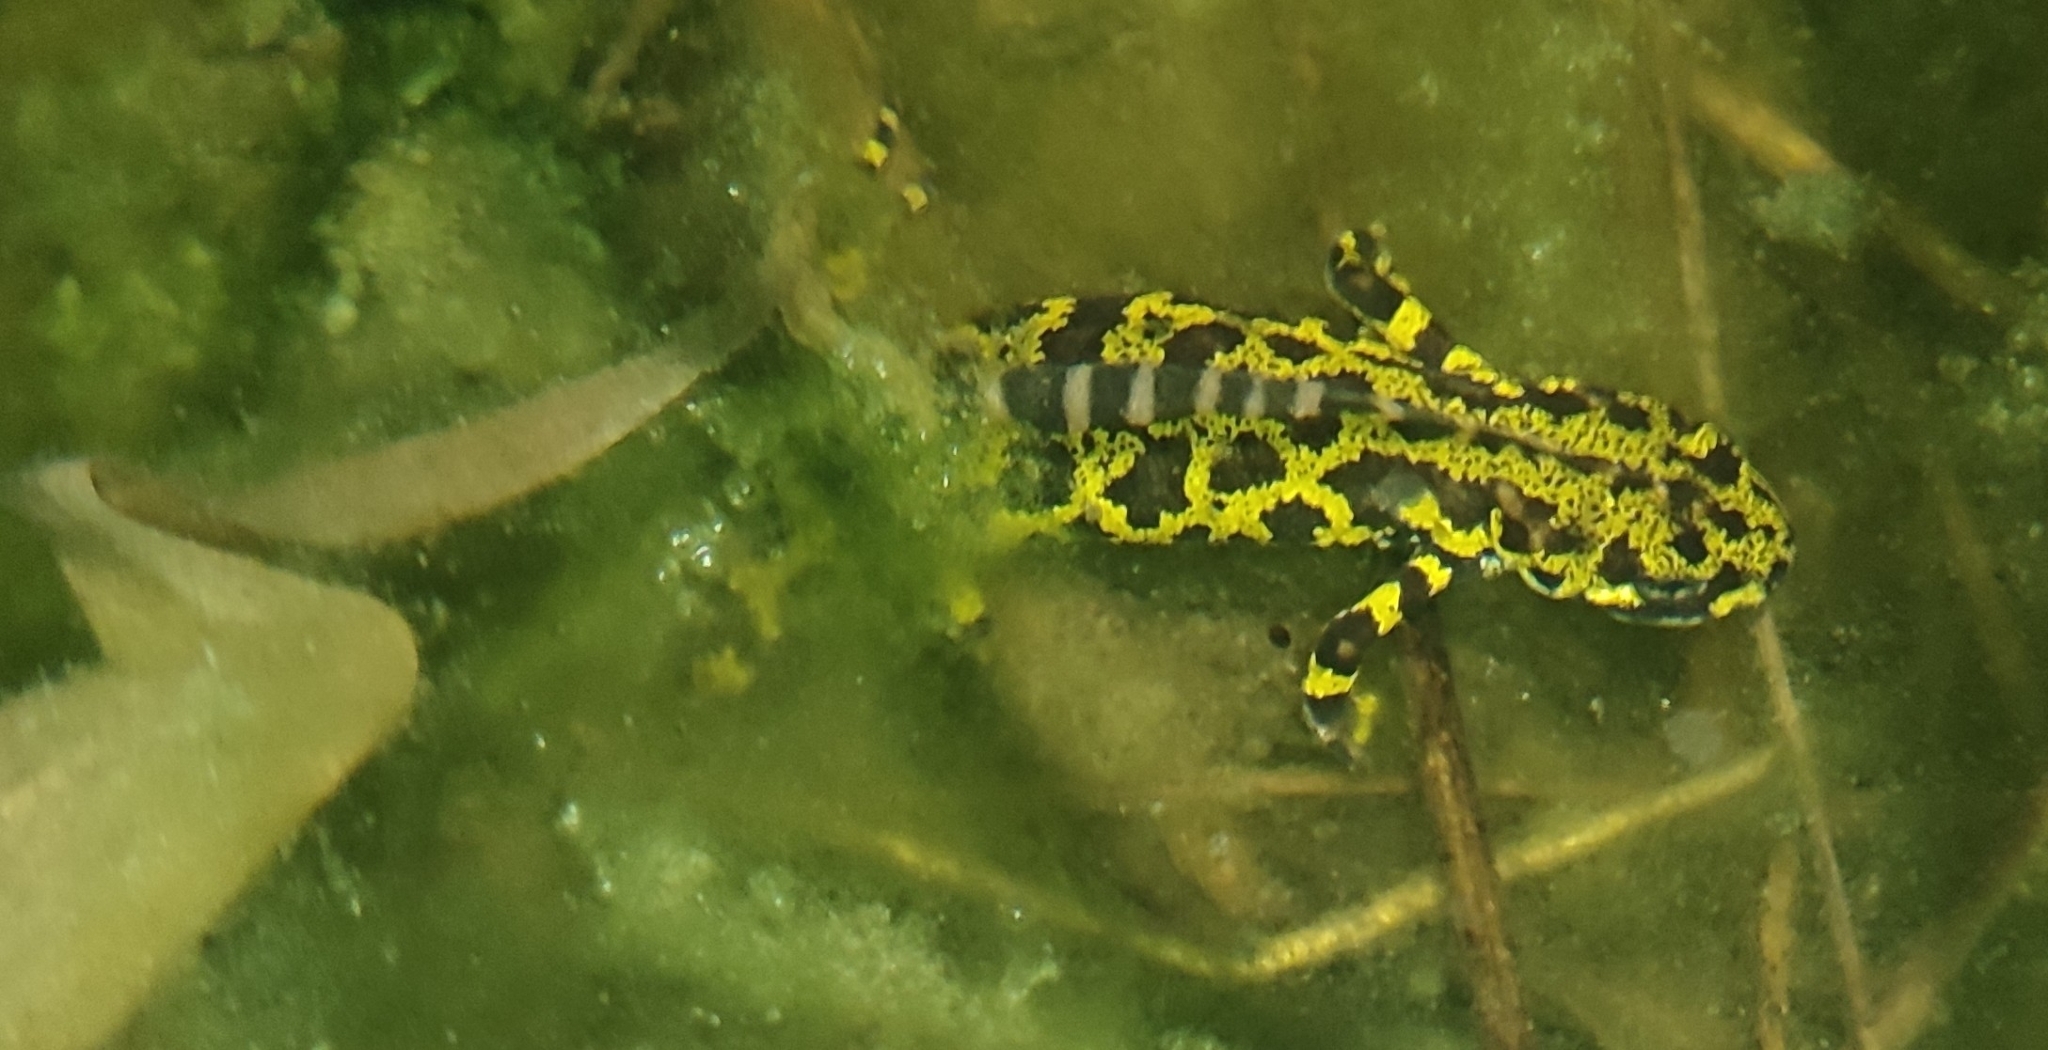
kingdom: Animalia
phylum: Chordata
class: Amphibia
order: Caudata
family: Salamandridae
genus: Triturus
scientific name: Triturus marmoratus
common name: Marbled newt
